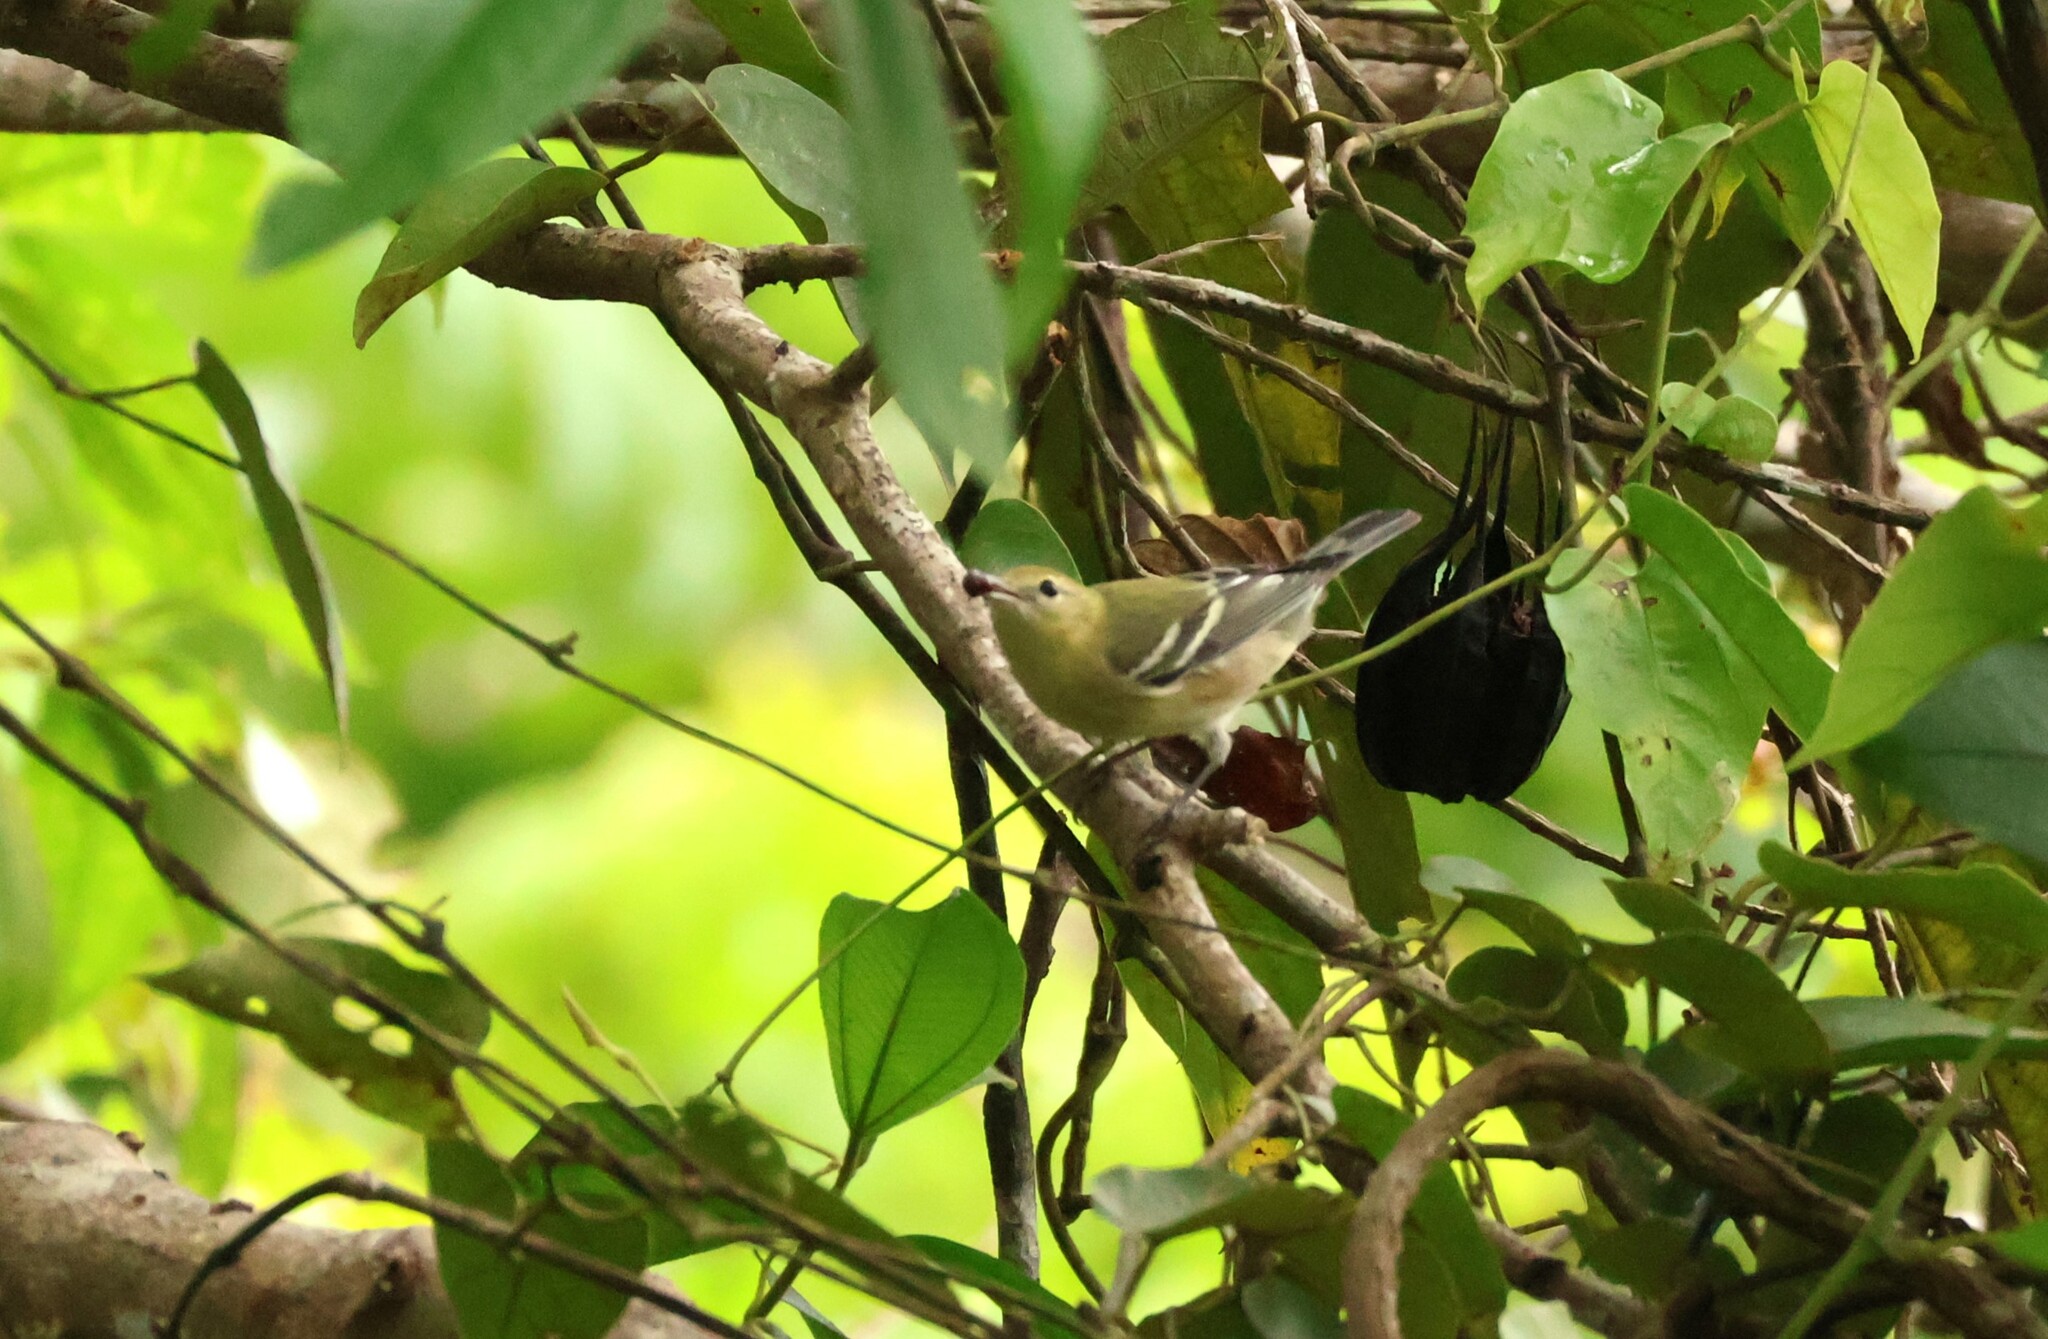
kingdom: Animalia
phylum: Chordata
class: Aves
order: Passeriformes
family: Parulidae
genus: Setophaga
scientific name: Setophaga castanea
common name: Bay-breasted warbler
